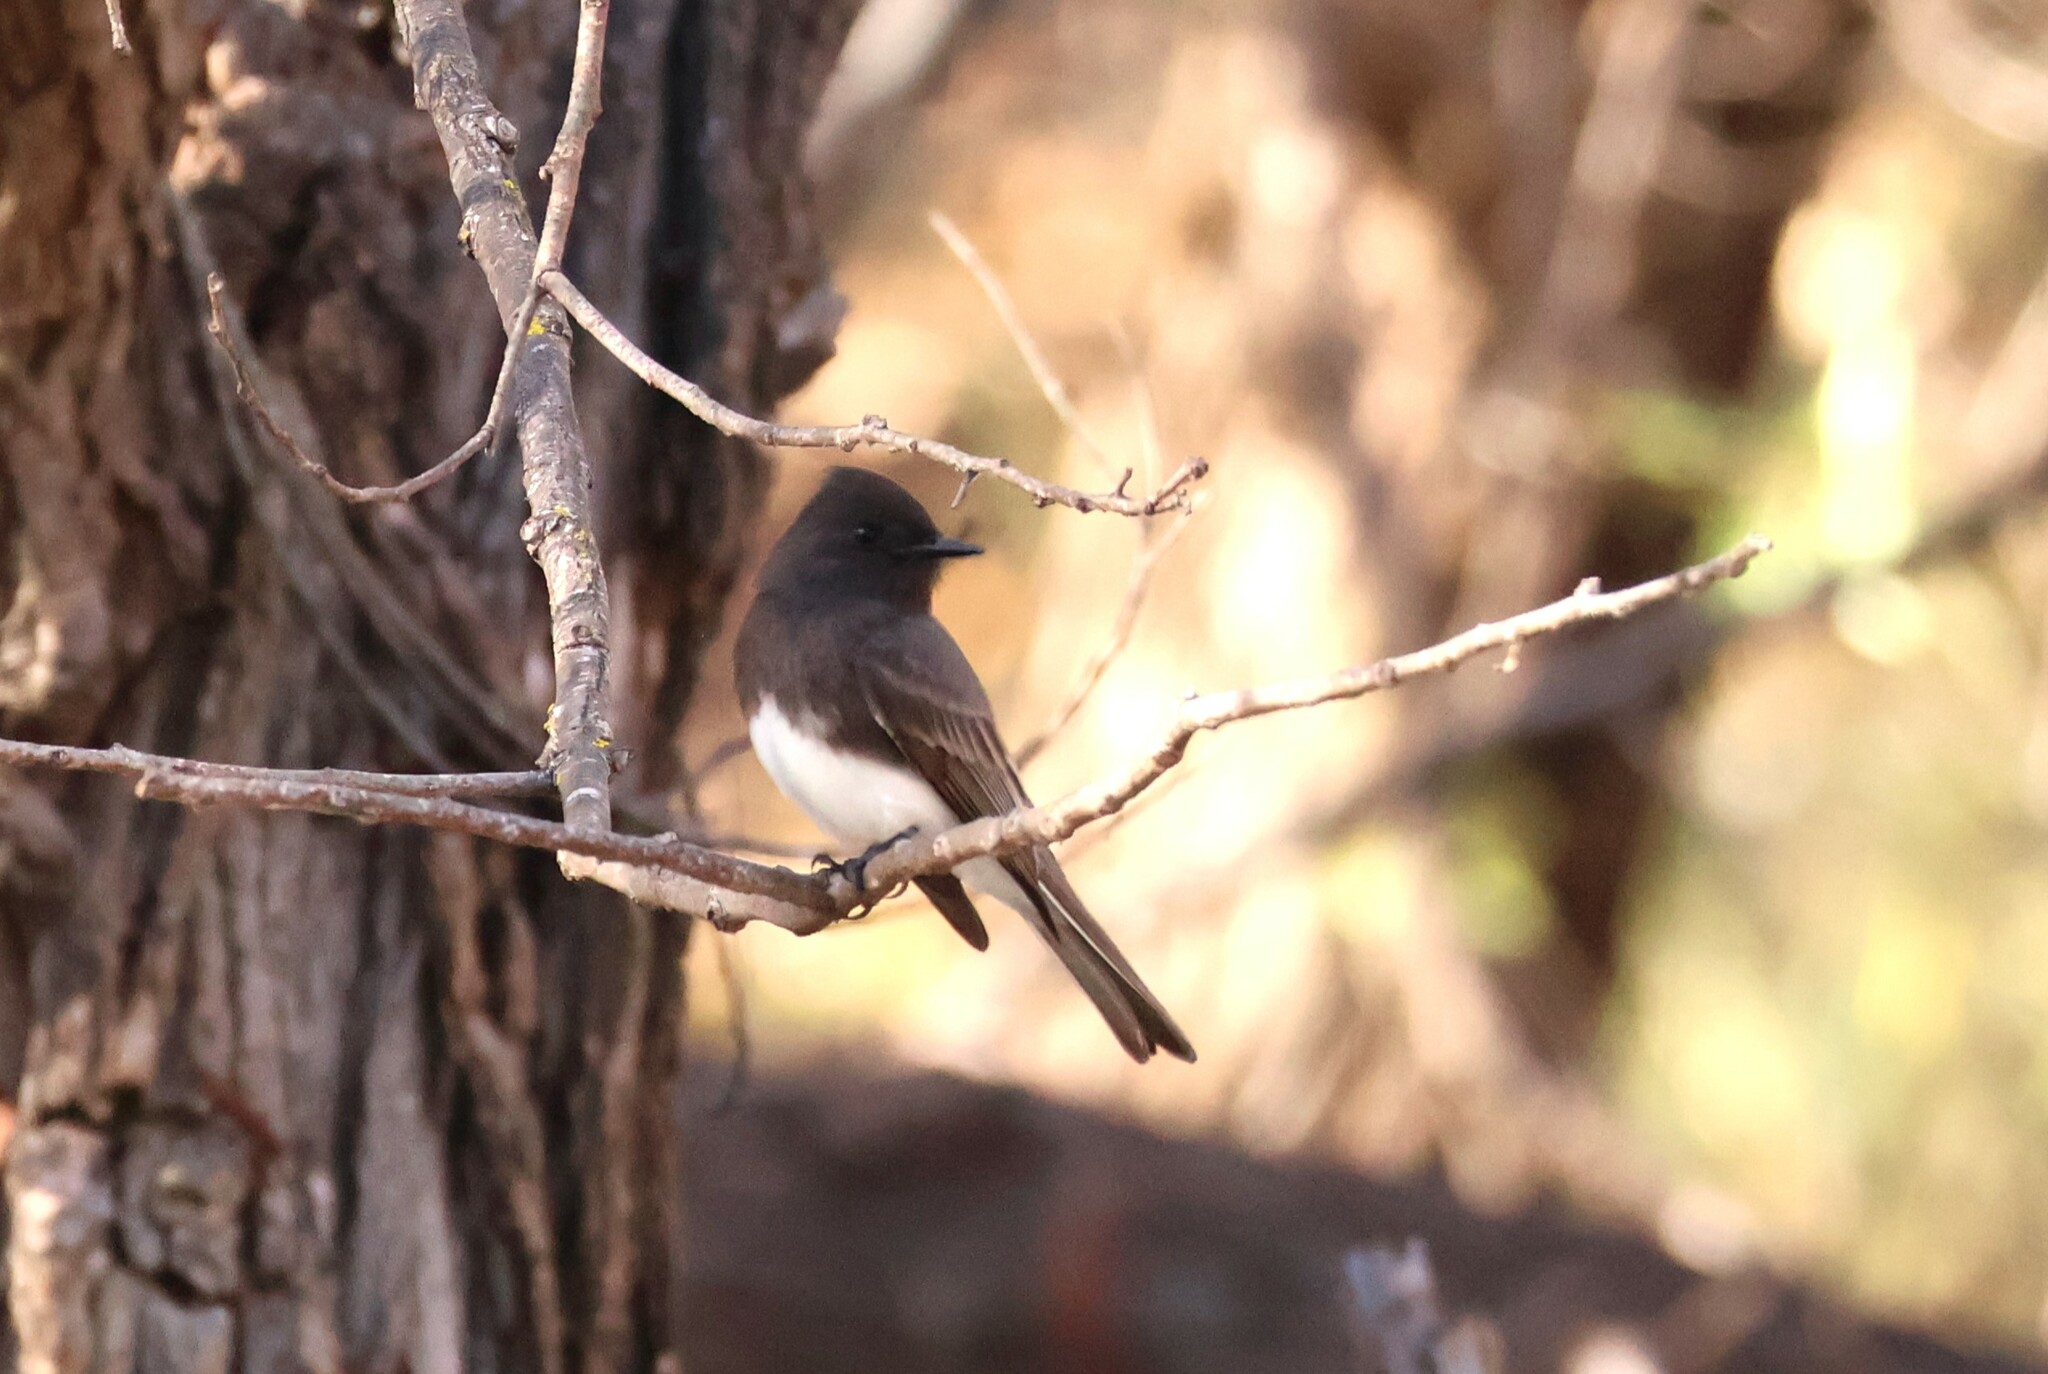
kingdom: Animalia
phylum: Chordata
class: Aves
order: Passeriformes
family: Tyrannidae
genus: Sayornis
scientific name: Sayornis nigricans
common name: Black phoebe
